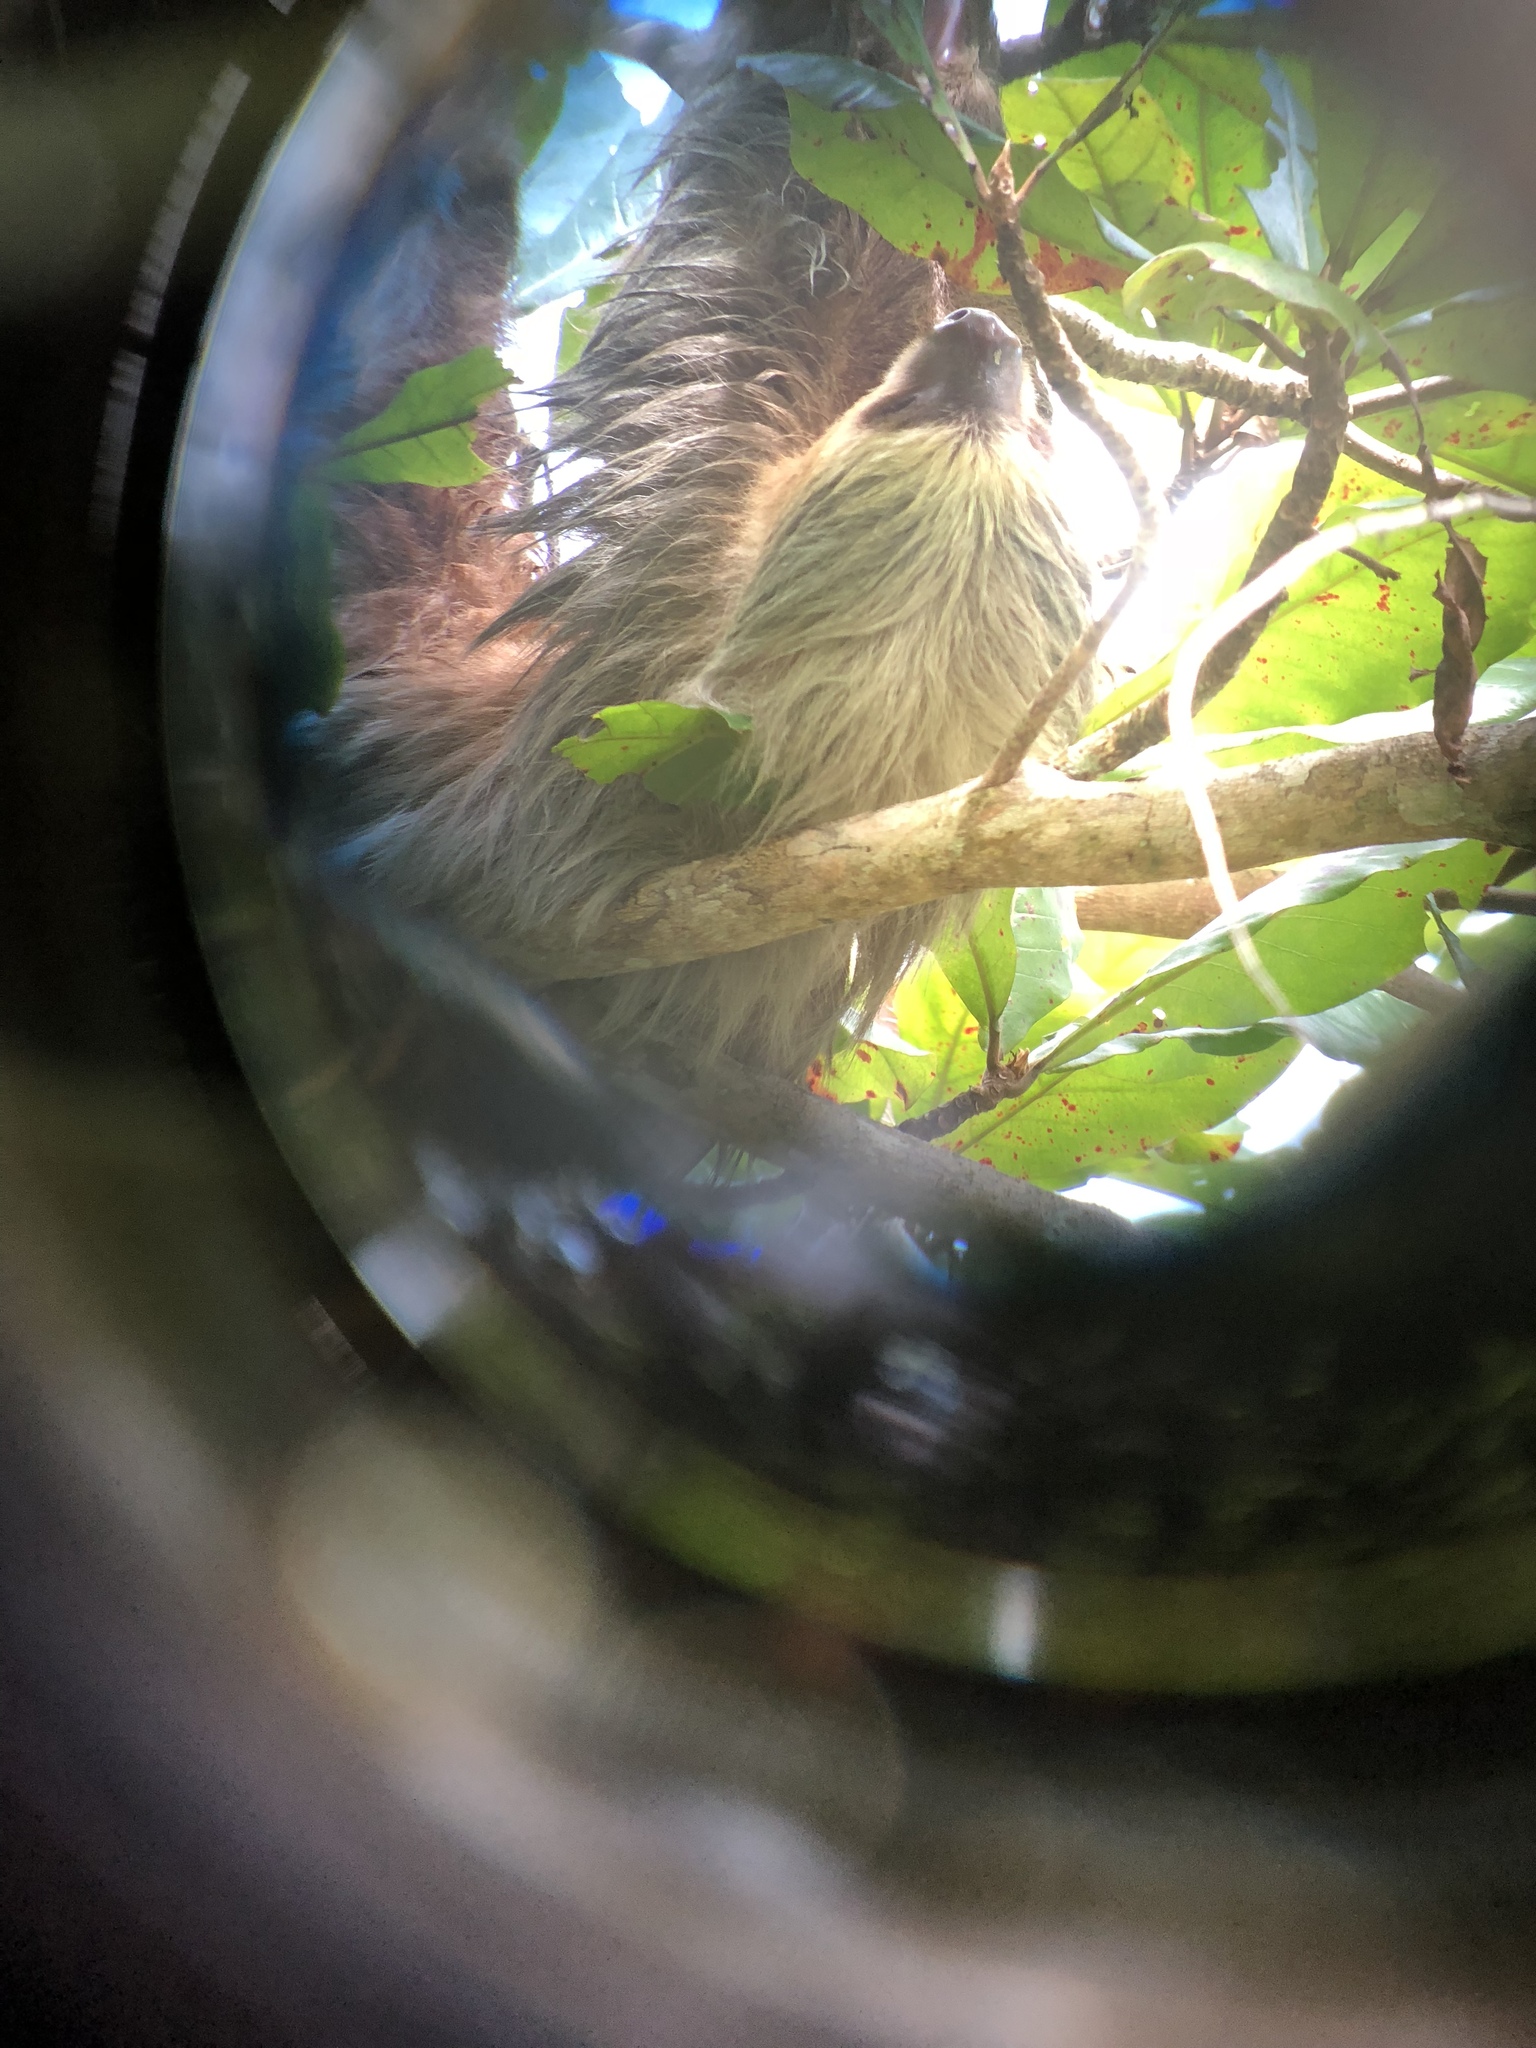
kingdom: Animalia
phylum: Chordata
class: Mammalia
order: Pilosa
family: Megalonychidae
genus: Choloepus
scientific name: Choloepus hoffmanni
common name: Hoffmann's two-toed sloth
